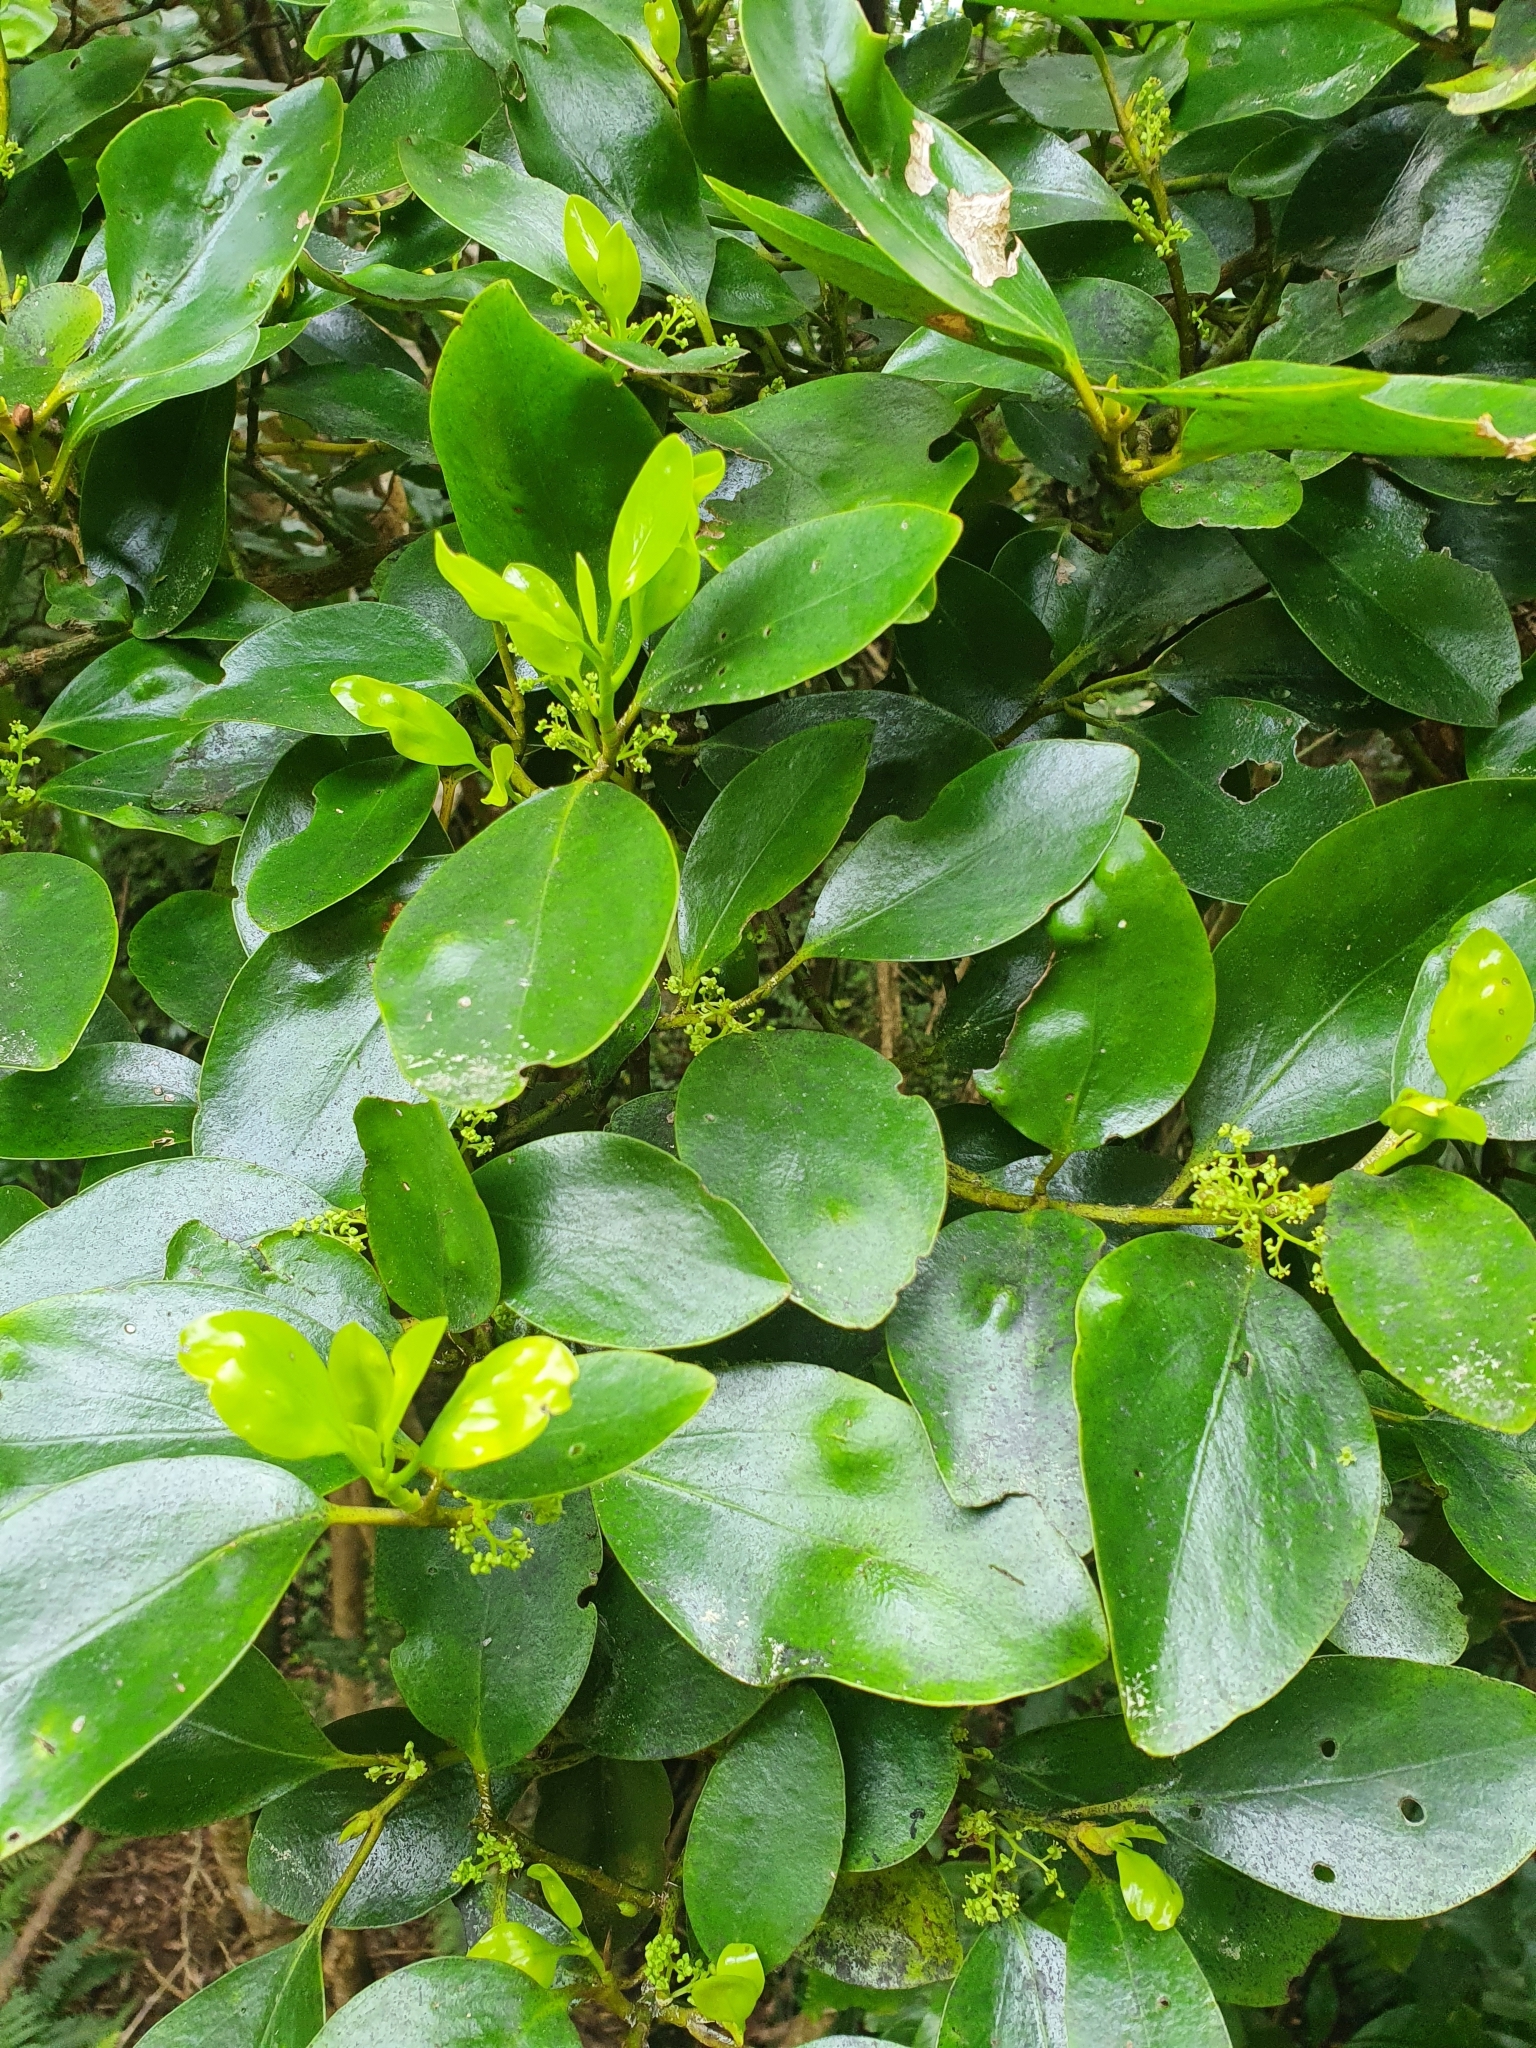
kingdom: Plantae
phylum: Tracheophyta
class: Magnoliopsida
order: Apiales
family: Griseliniaceae
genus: Griselinia
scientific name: Griselinia littoralis
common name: New zealand broadleaf
